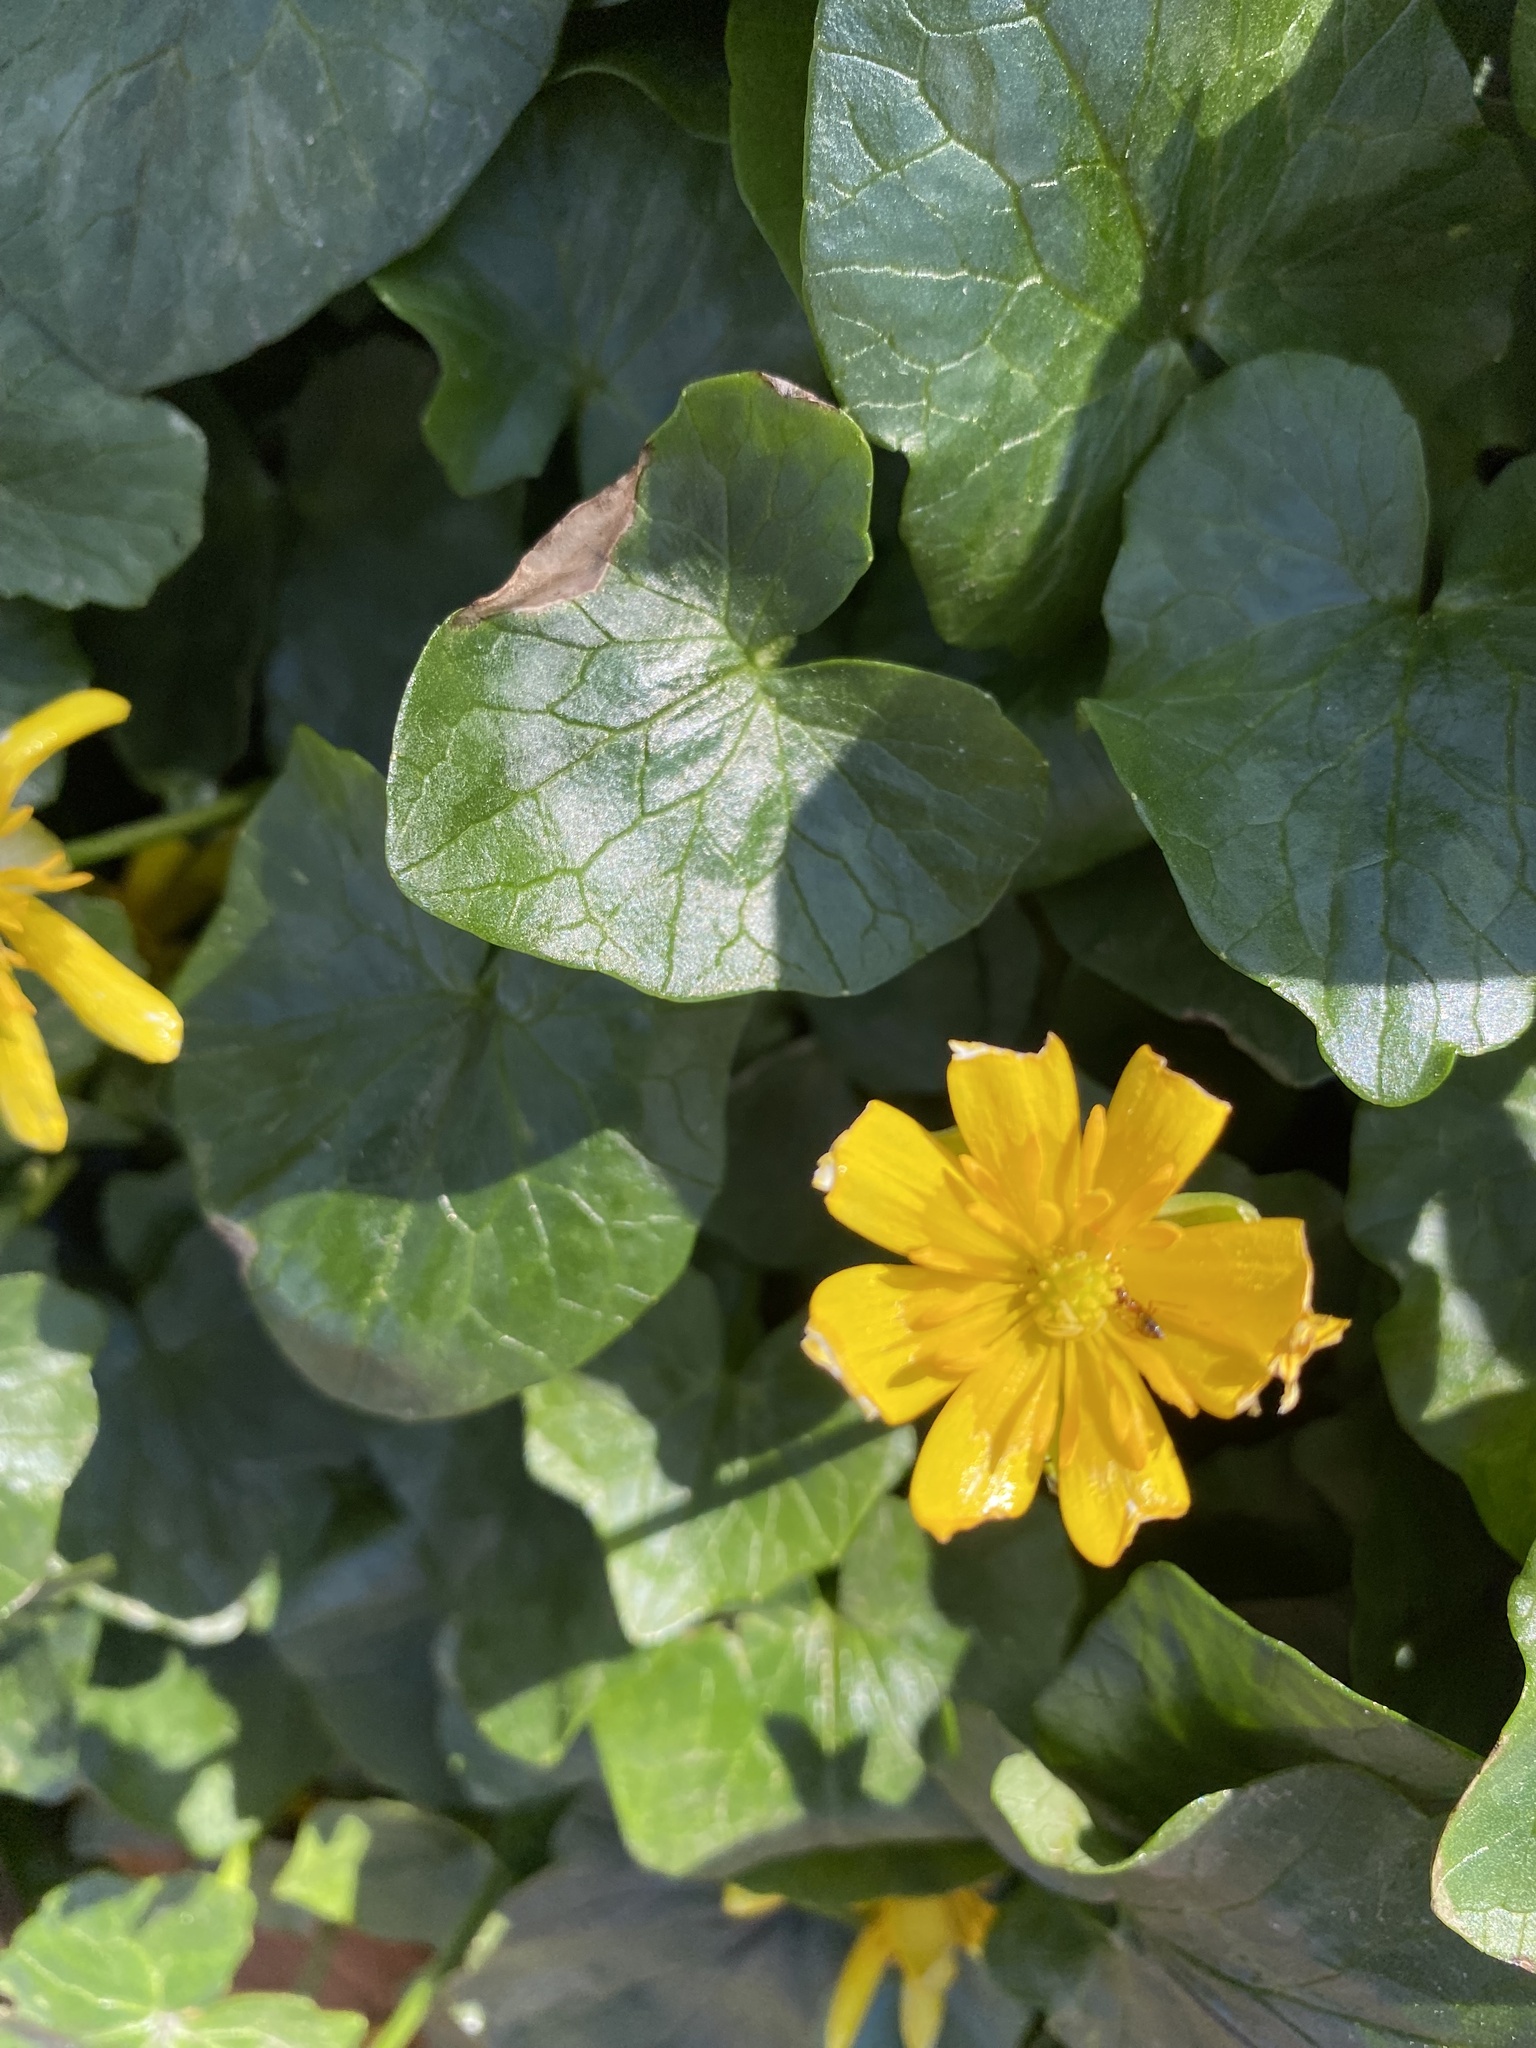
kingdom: Plantae
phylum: Tracheophyta
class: Magnoliopsida
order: Ranunculales
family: Ranunculaceae
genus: Ficaria
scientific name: Ficaria verna
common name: Lesser celandine
